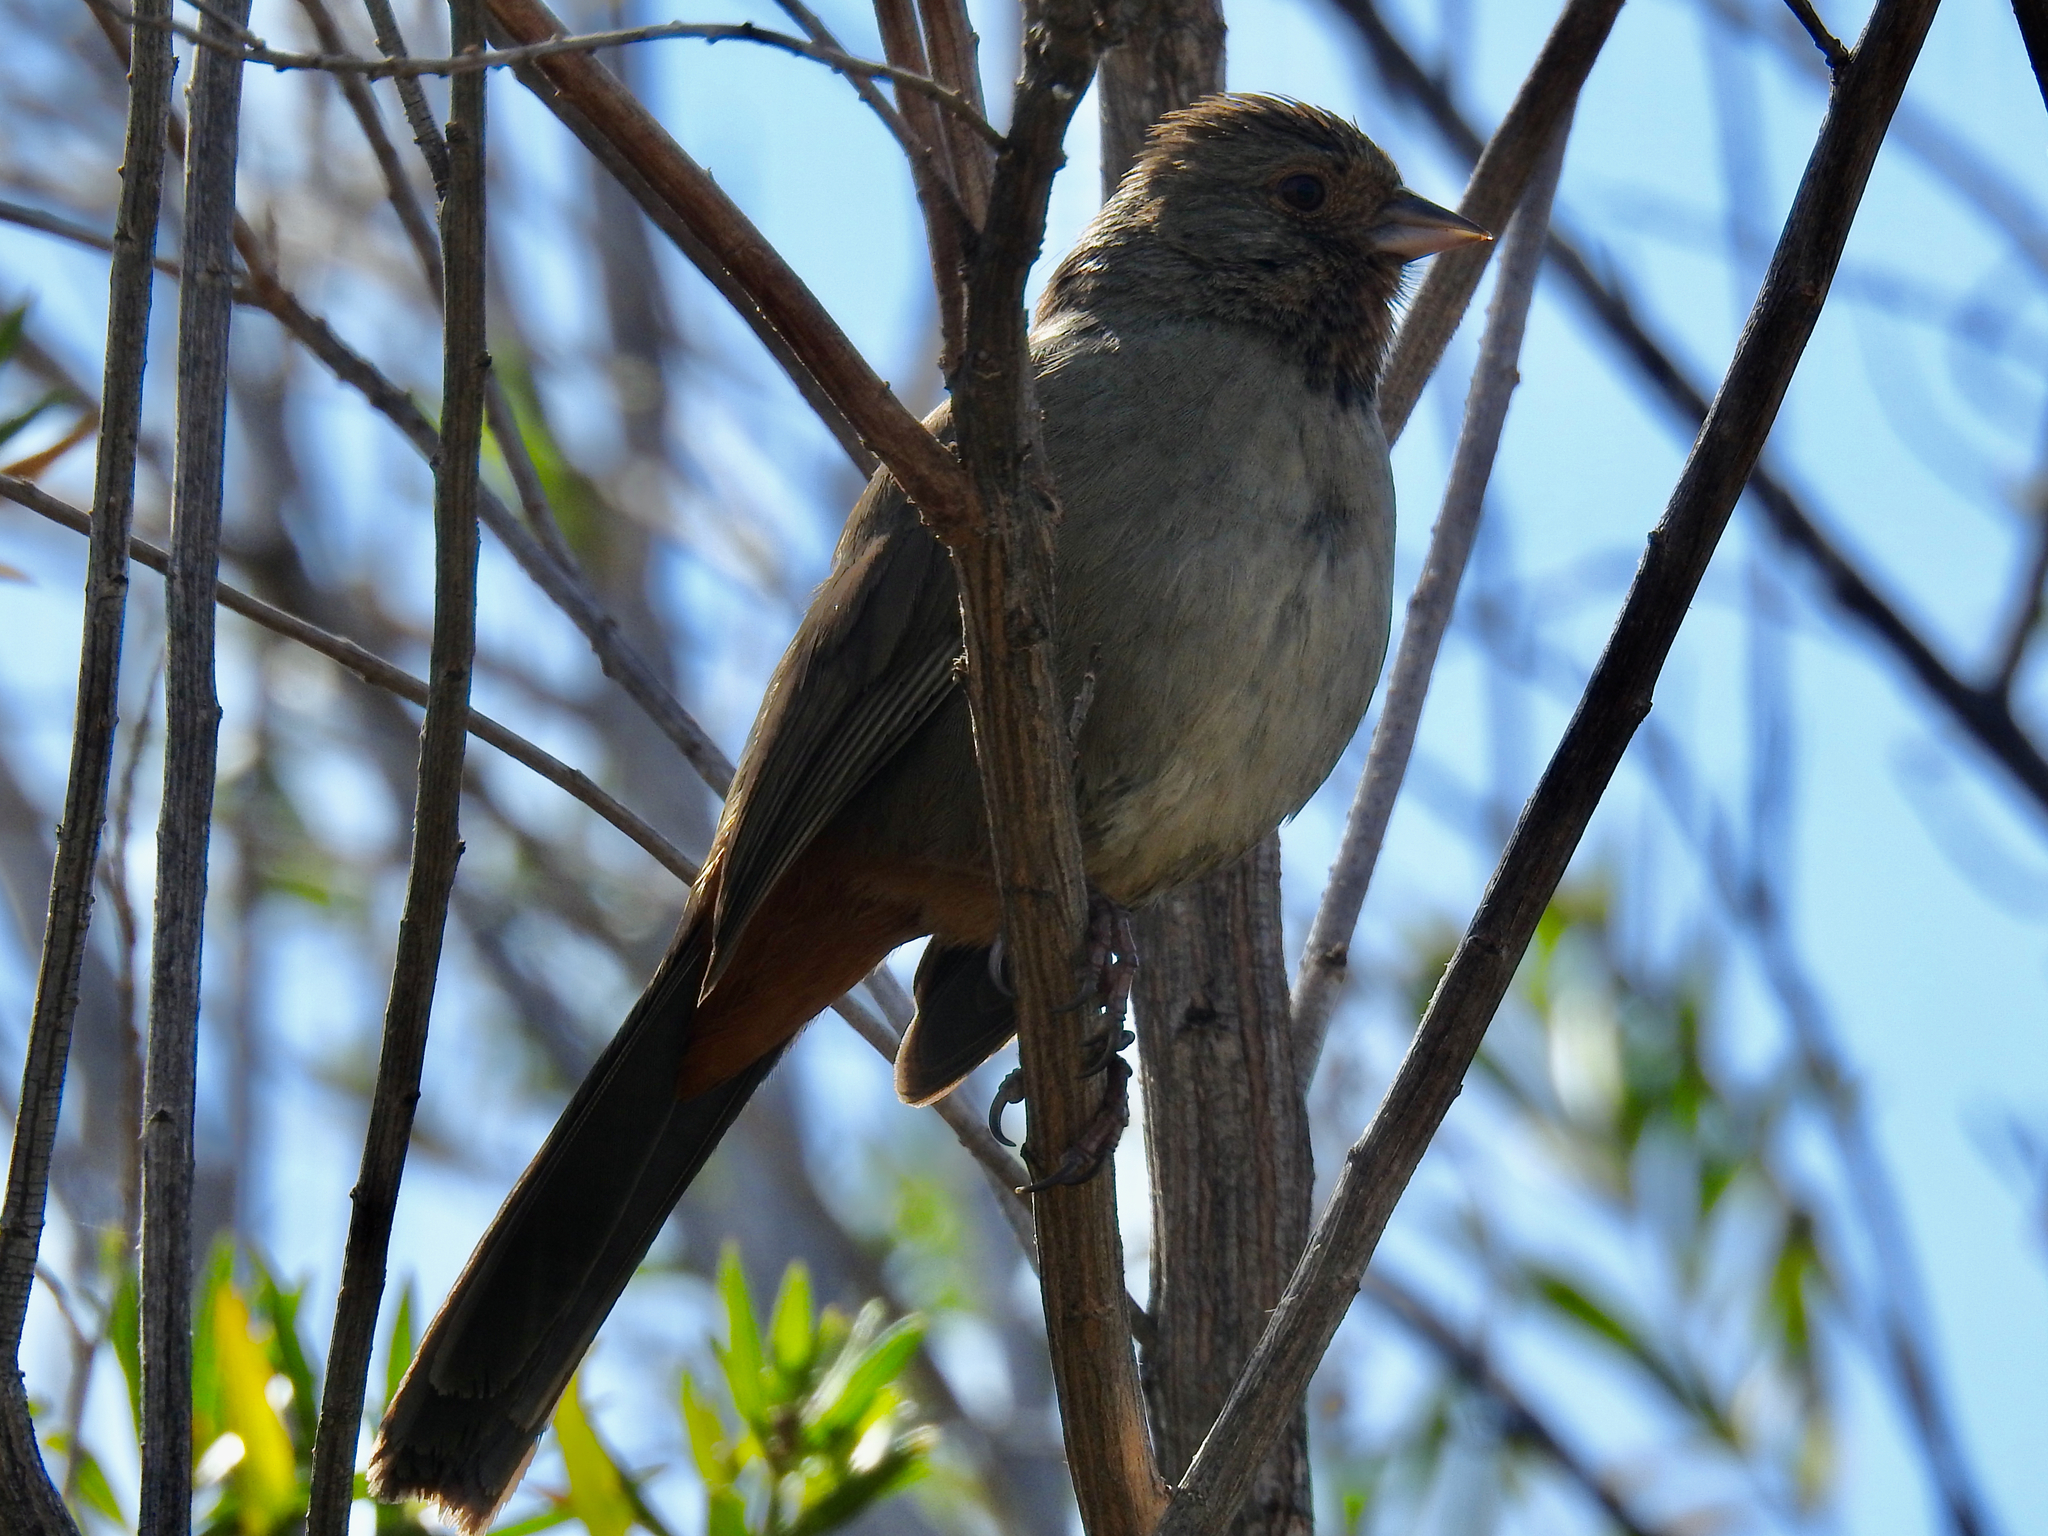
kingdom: Animalia
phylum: Chordata
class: Aves
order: Passeriformes
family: Passerellidae
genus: Melozone
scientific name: Melozone crissalis
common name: California towhee
